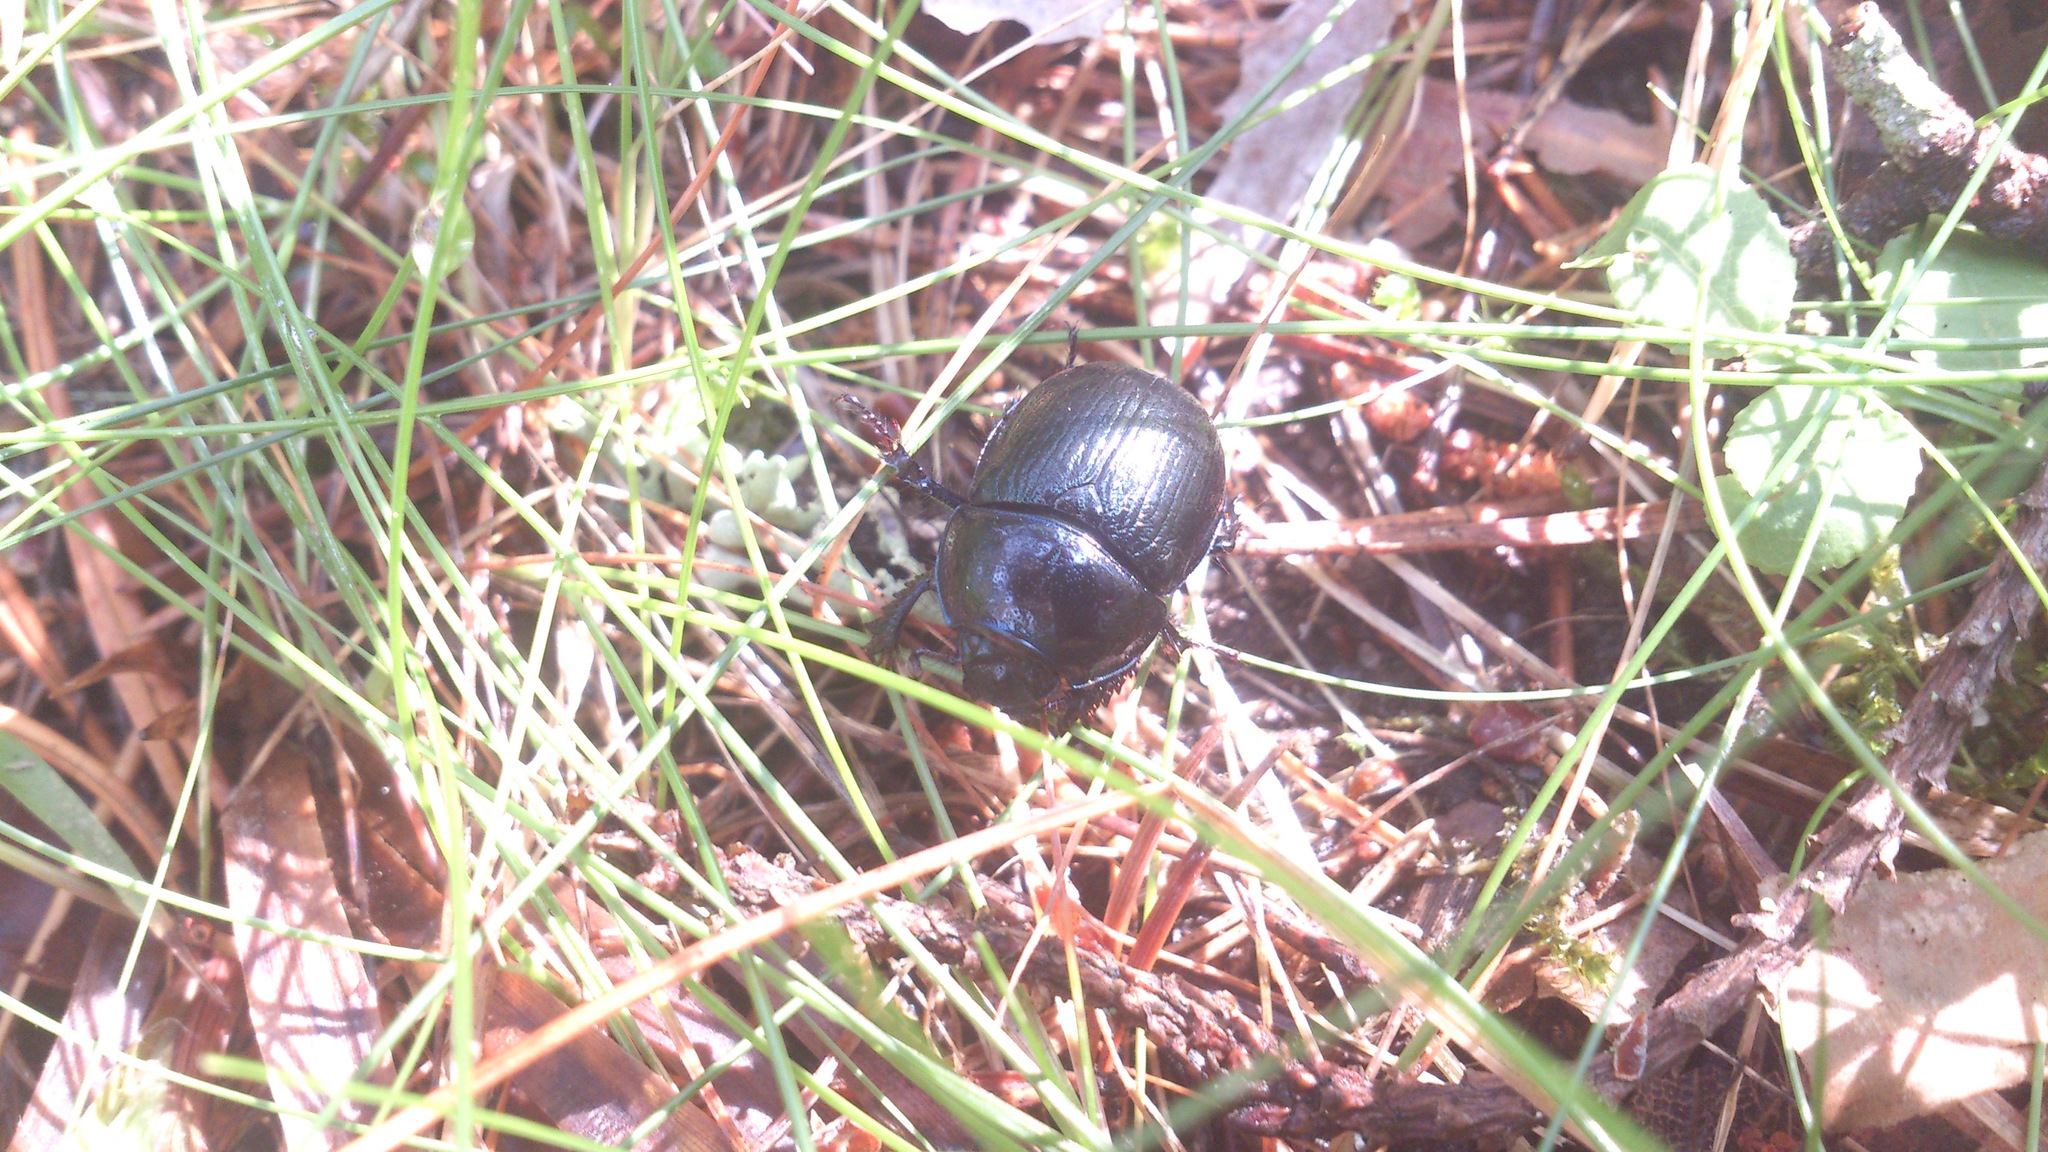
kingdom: Animalia
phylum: Arthropoda
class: Insecta
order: Coleoptera
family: Geotrupidae
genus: Anoplotrupes
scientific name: Anoplotrupes stercorosus
